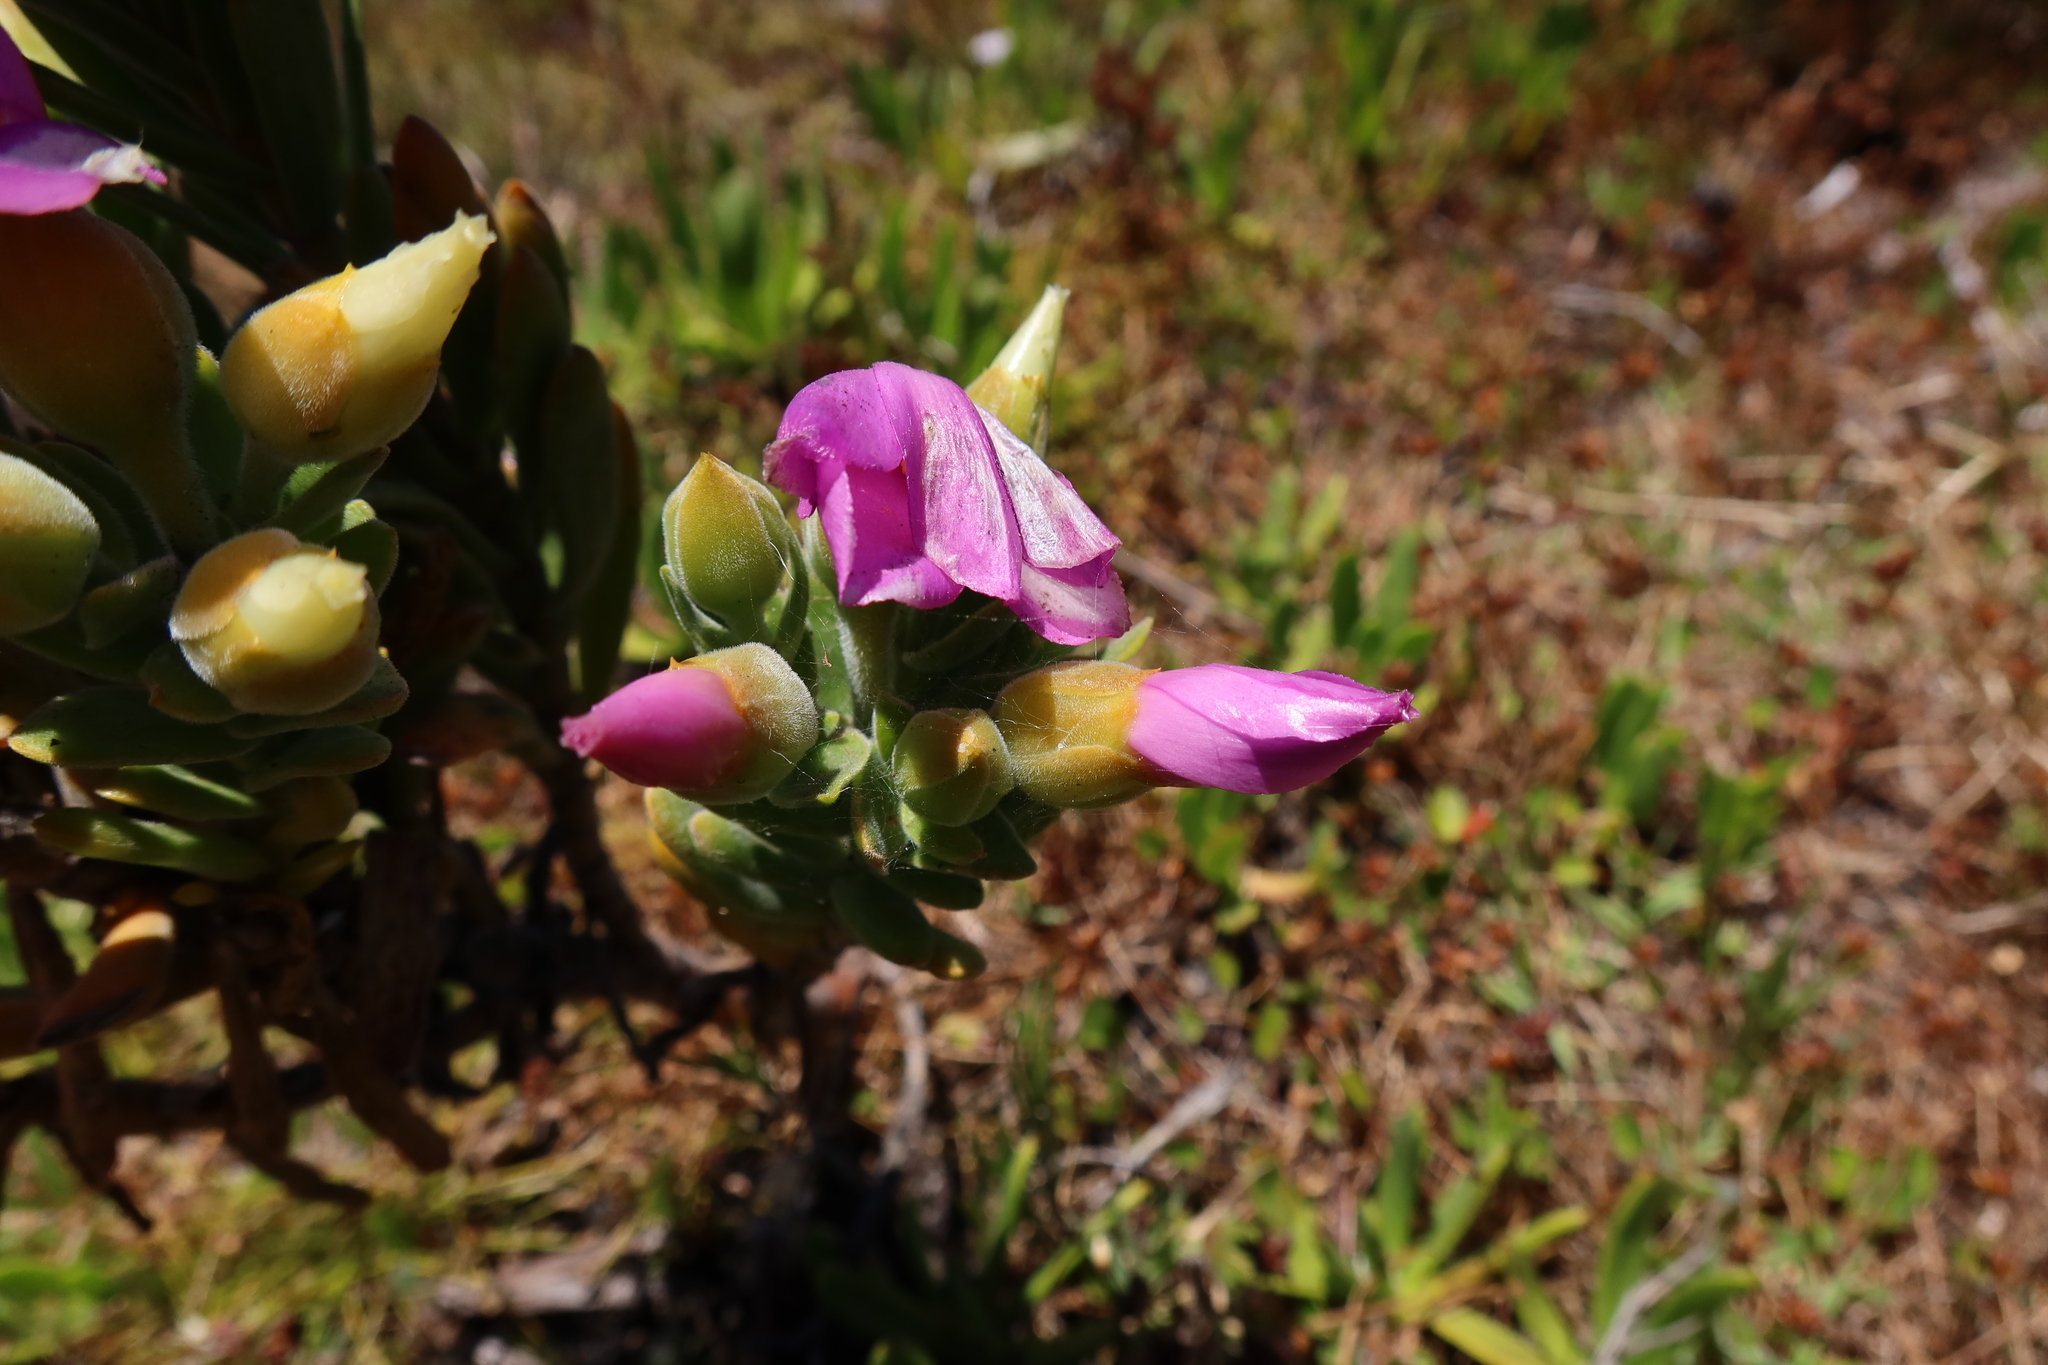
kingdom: Plantae
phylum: Tracheophyta
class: Magnoliopsida
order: Gentianales
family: Gentianaceae
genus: Orphium
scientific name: Orphium frutescens
